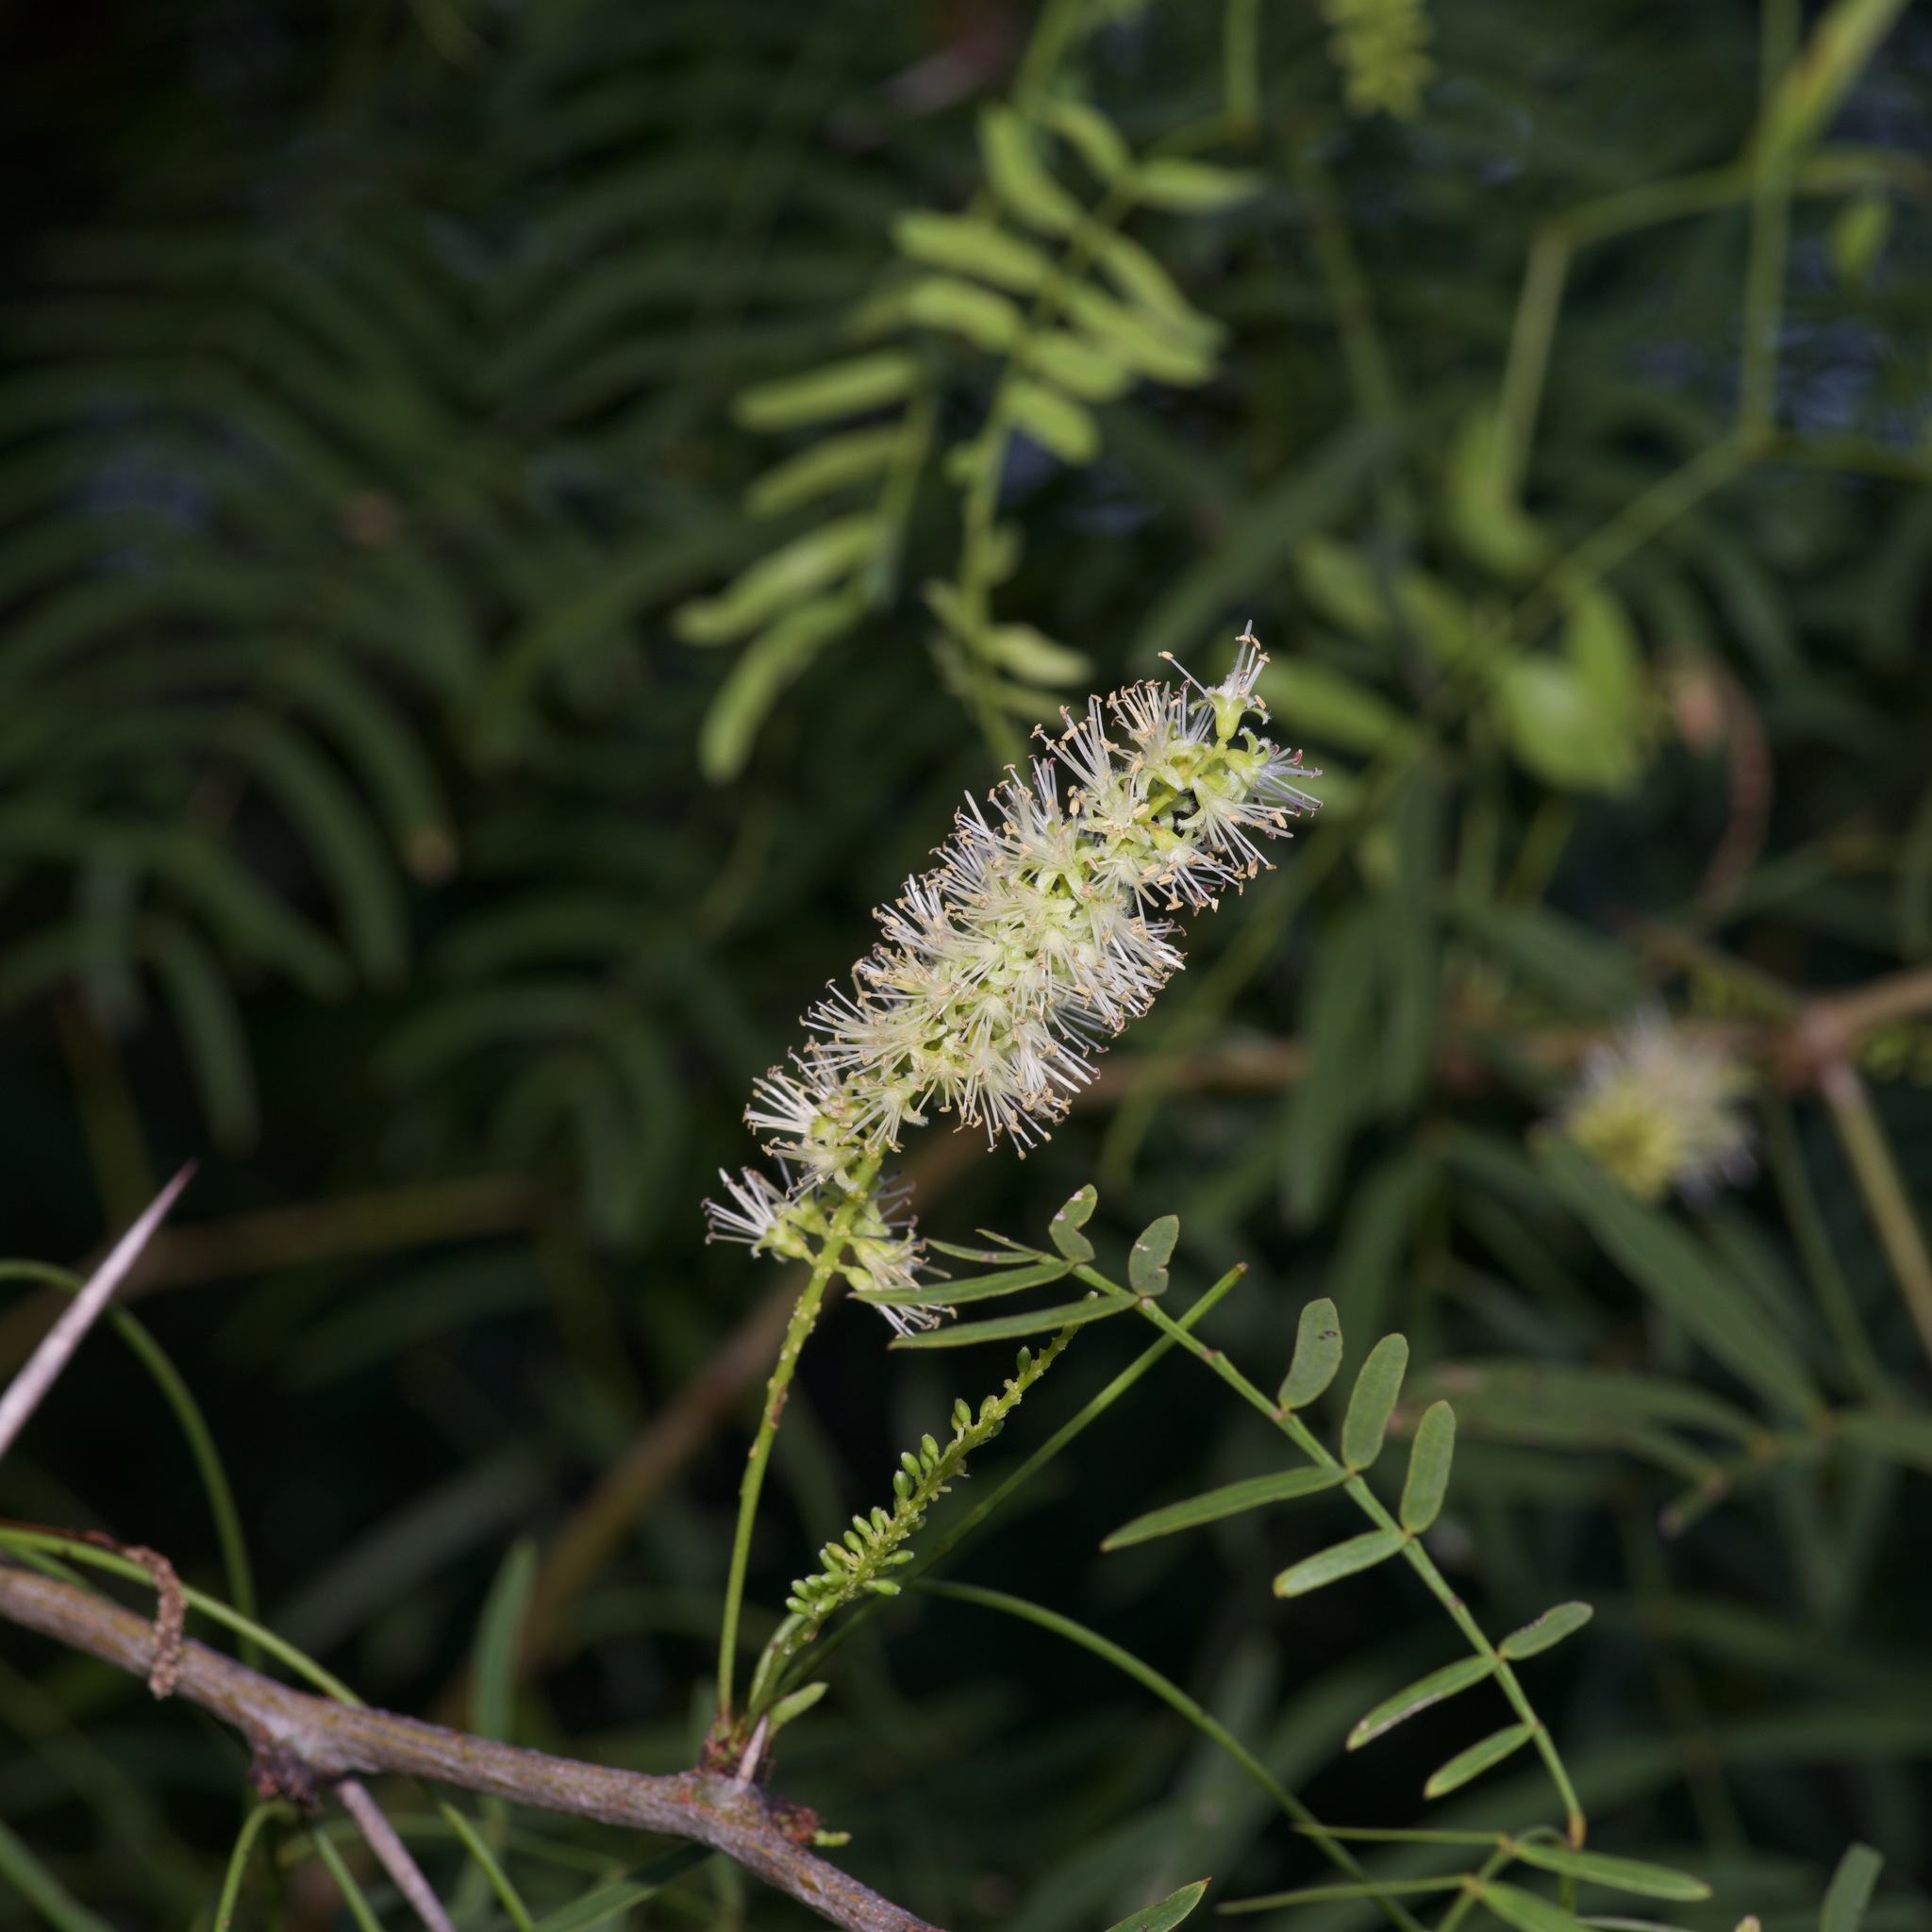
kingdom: Plantae
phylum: Tracheophyta
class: Magnoliopsida
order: Fabales
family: Fabaceae
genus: Prosopis
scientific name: Prosopis glandulosa
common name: Honey mesquite
